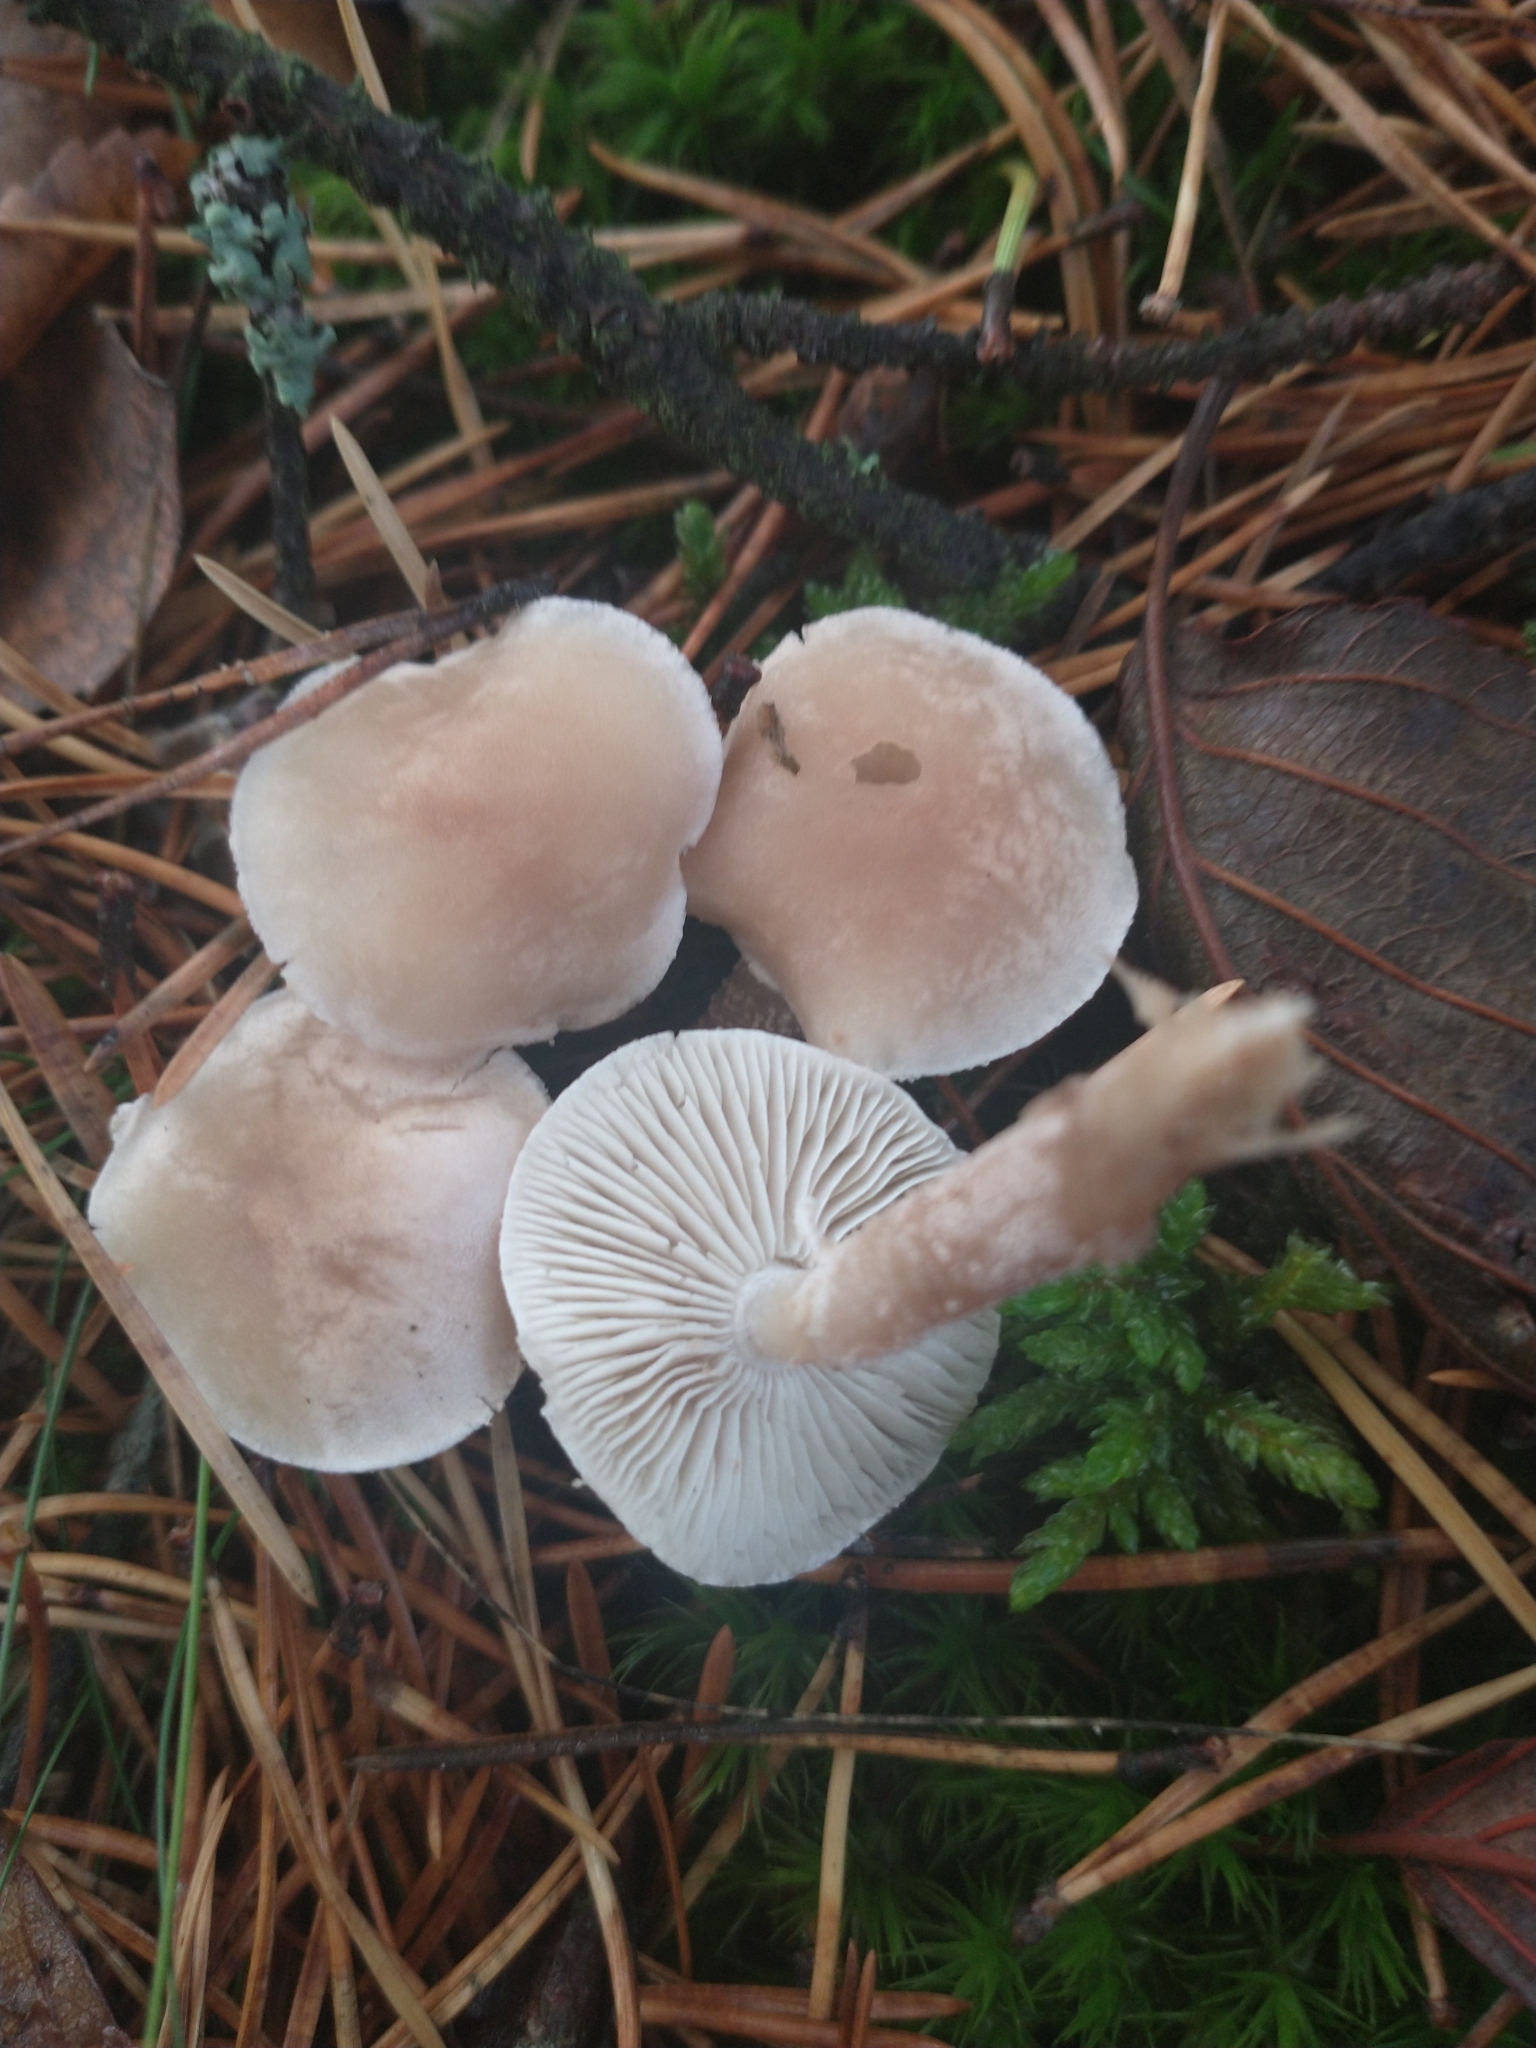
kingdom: Fungi
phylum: Basidiomycota
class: Agaricomycetes
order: Agaricales
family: Tricholomataceae
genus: Cystoderma
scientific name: Cystoderma carcharias
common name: Pearly powdercap
